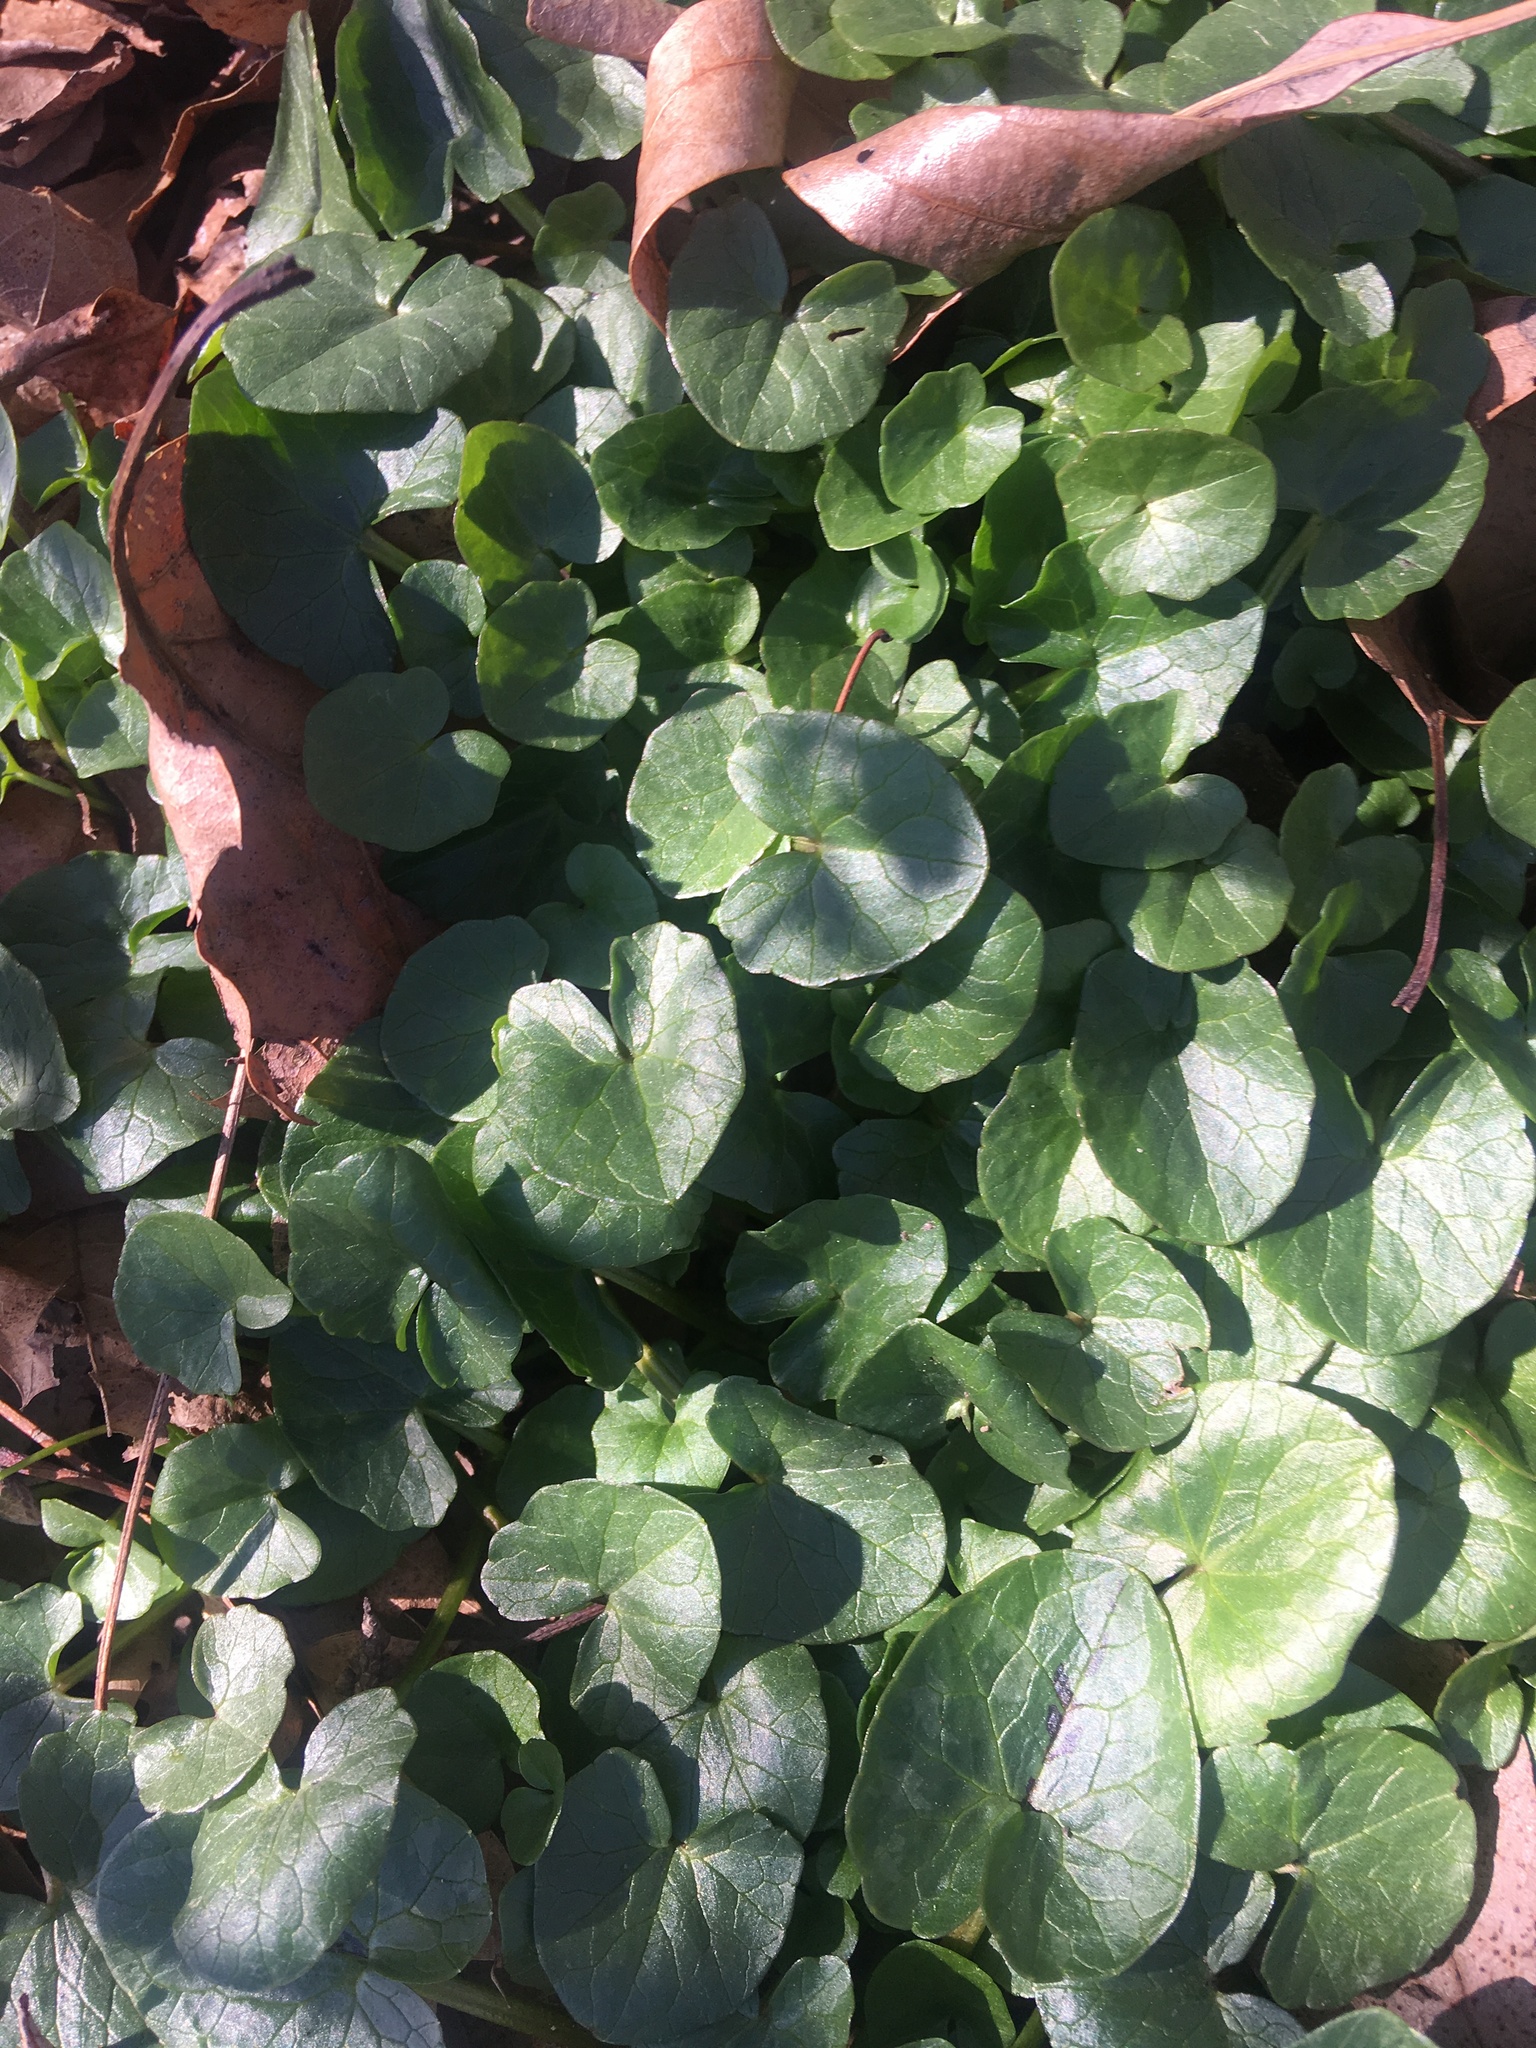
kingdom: Plantae
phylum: Tracheophyta
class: Magnoliopsida
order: Ranunculales
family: Ranunculaceae
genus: Ficaria
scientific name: Ficaria verna
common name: Lesser celandine
